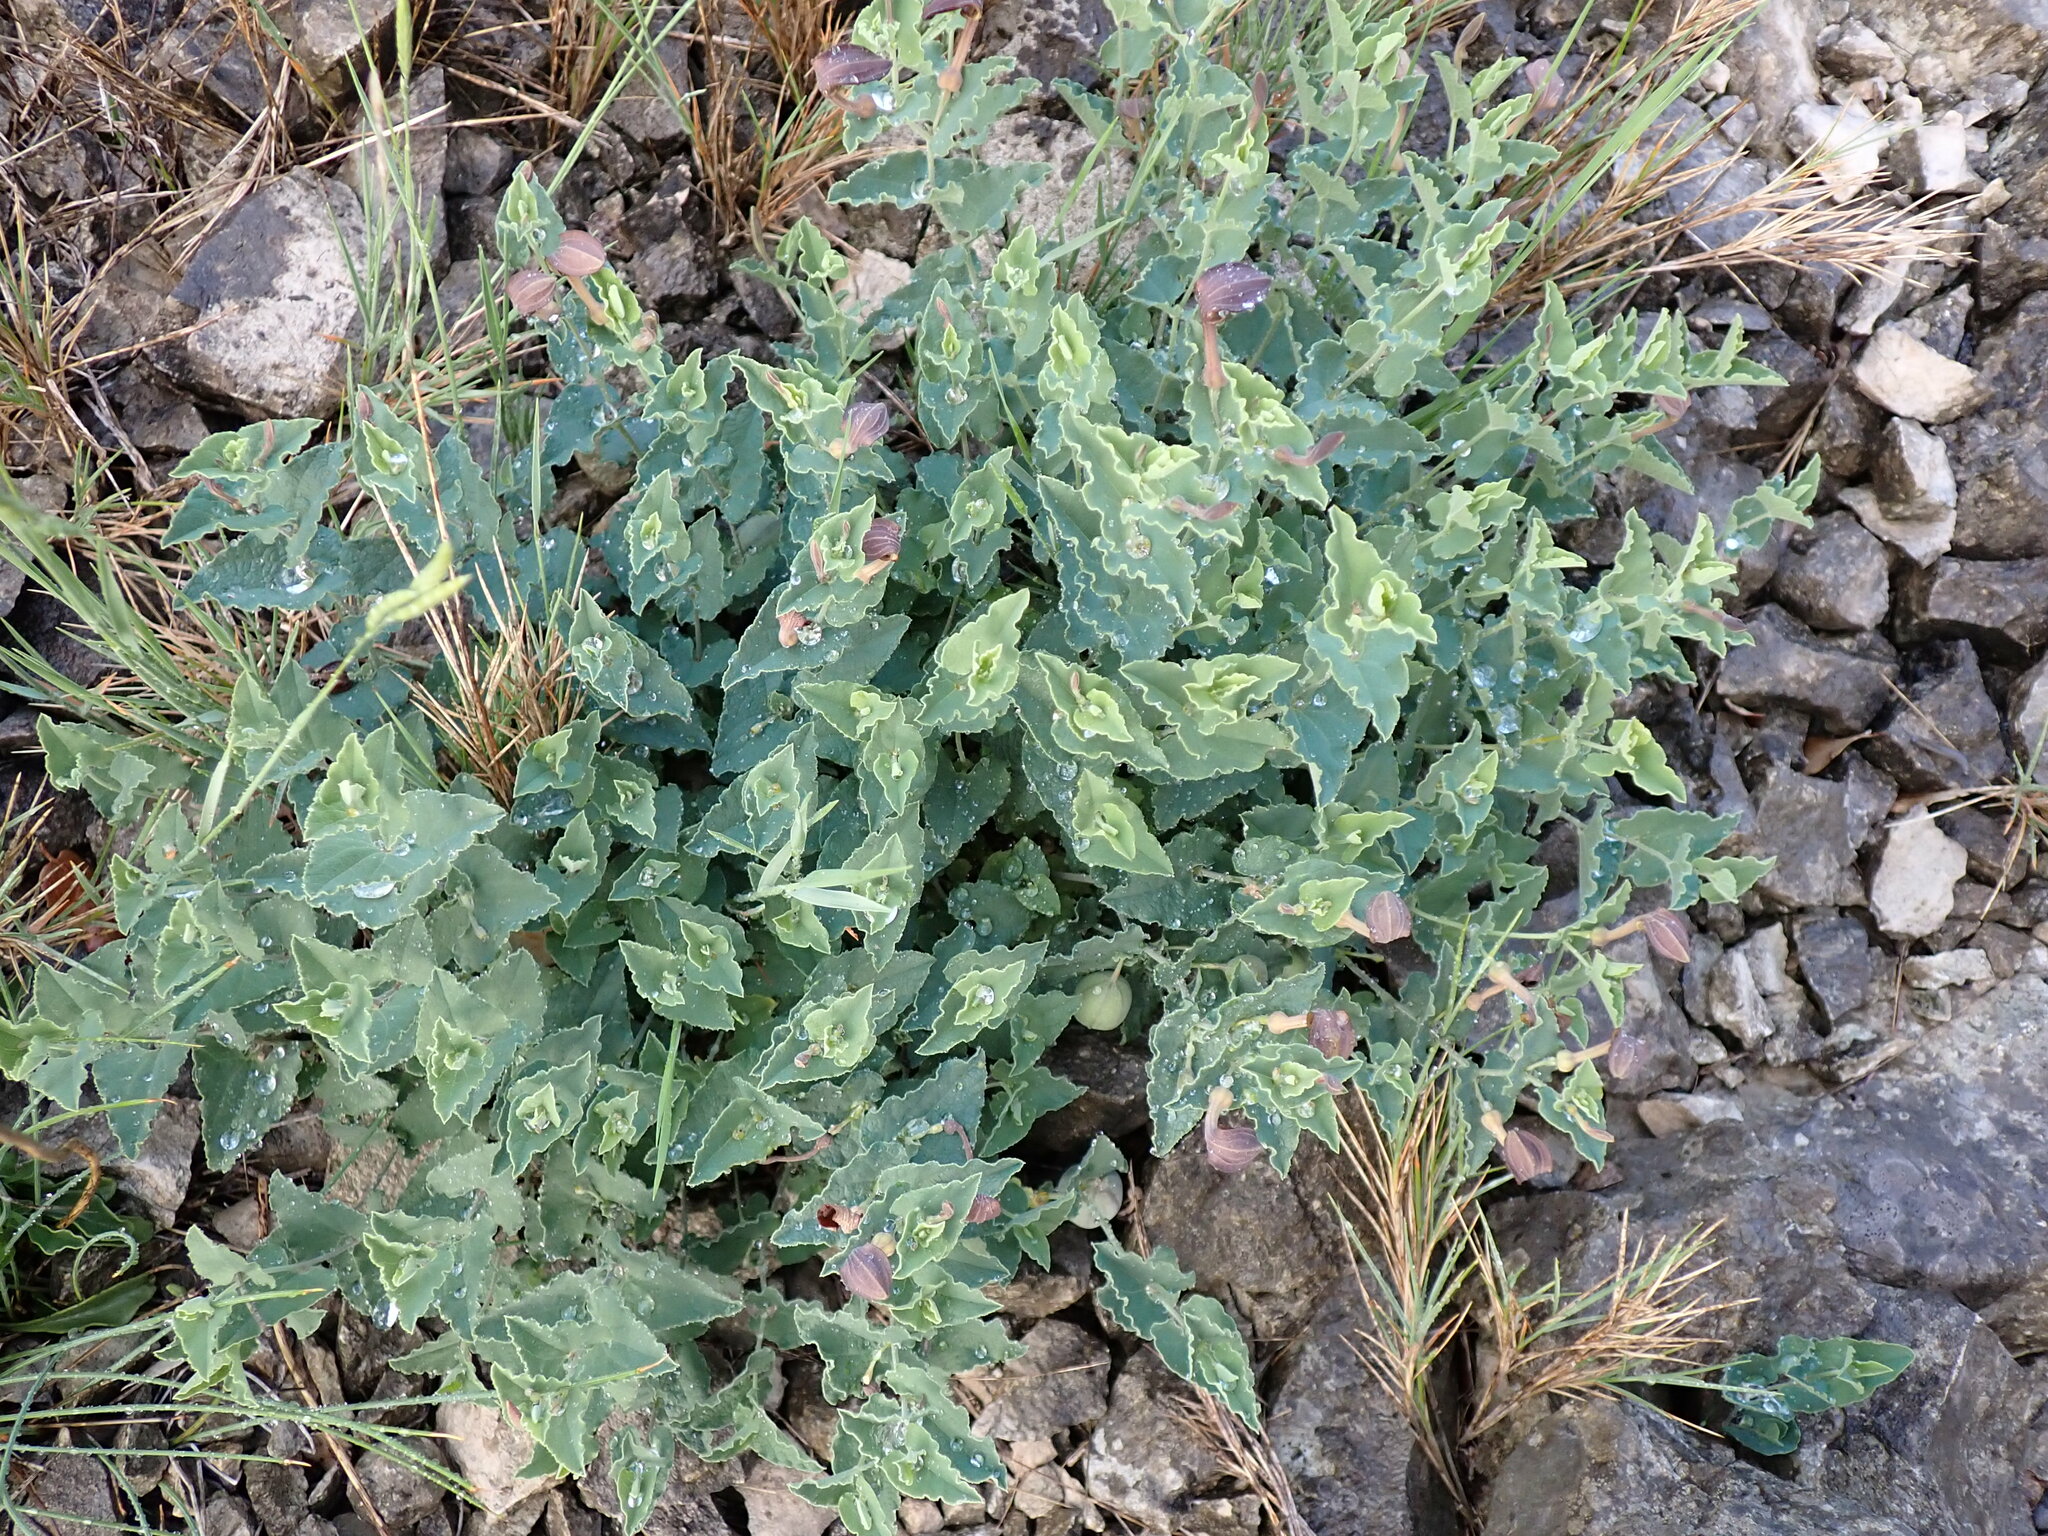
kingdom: Plantae
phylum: Tracheophyta
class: Magnoliopsida
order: Piperales
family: Aristolochiaceae
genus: Aristolochia
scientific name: Aristolochia pistolochia
